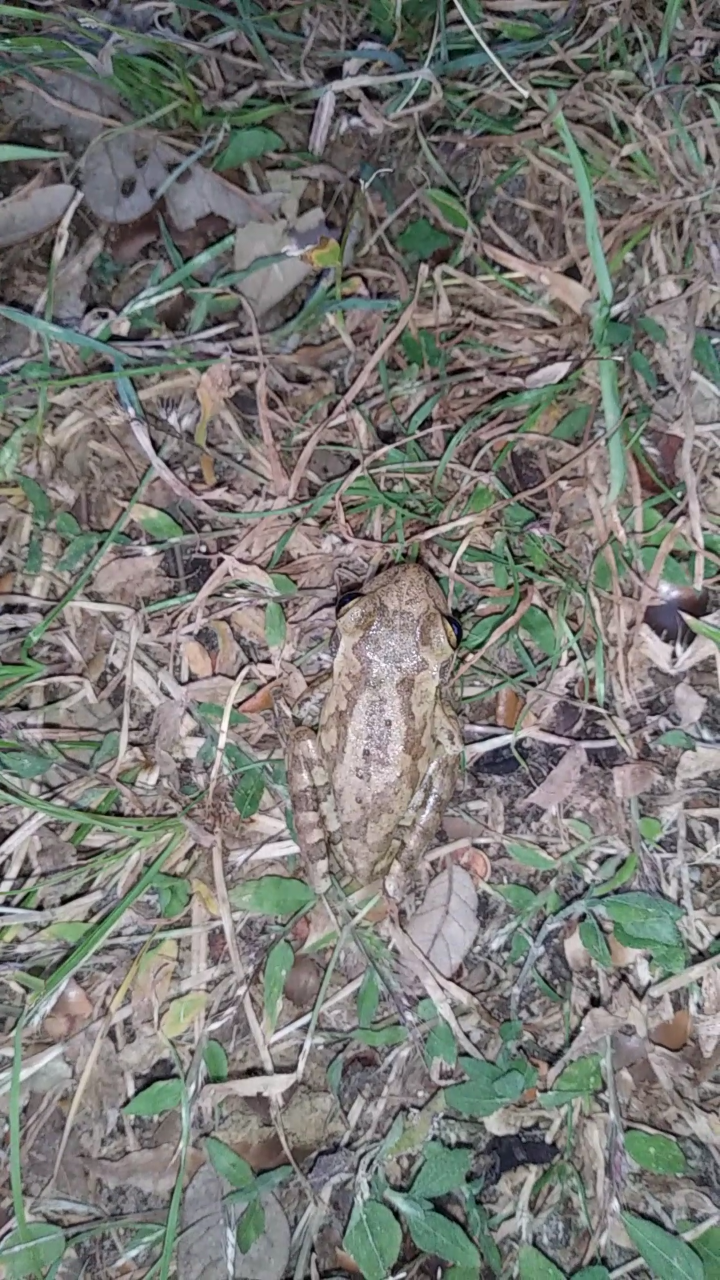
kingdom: Animalia
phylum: Chordata
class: Amphibia
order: Anura
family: Hylidae
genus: Osteopilus
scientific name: Osteopilus septentrionalis
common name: Cuban treefrog
